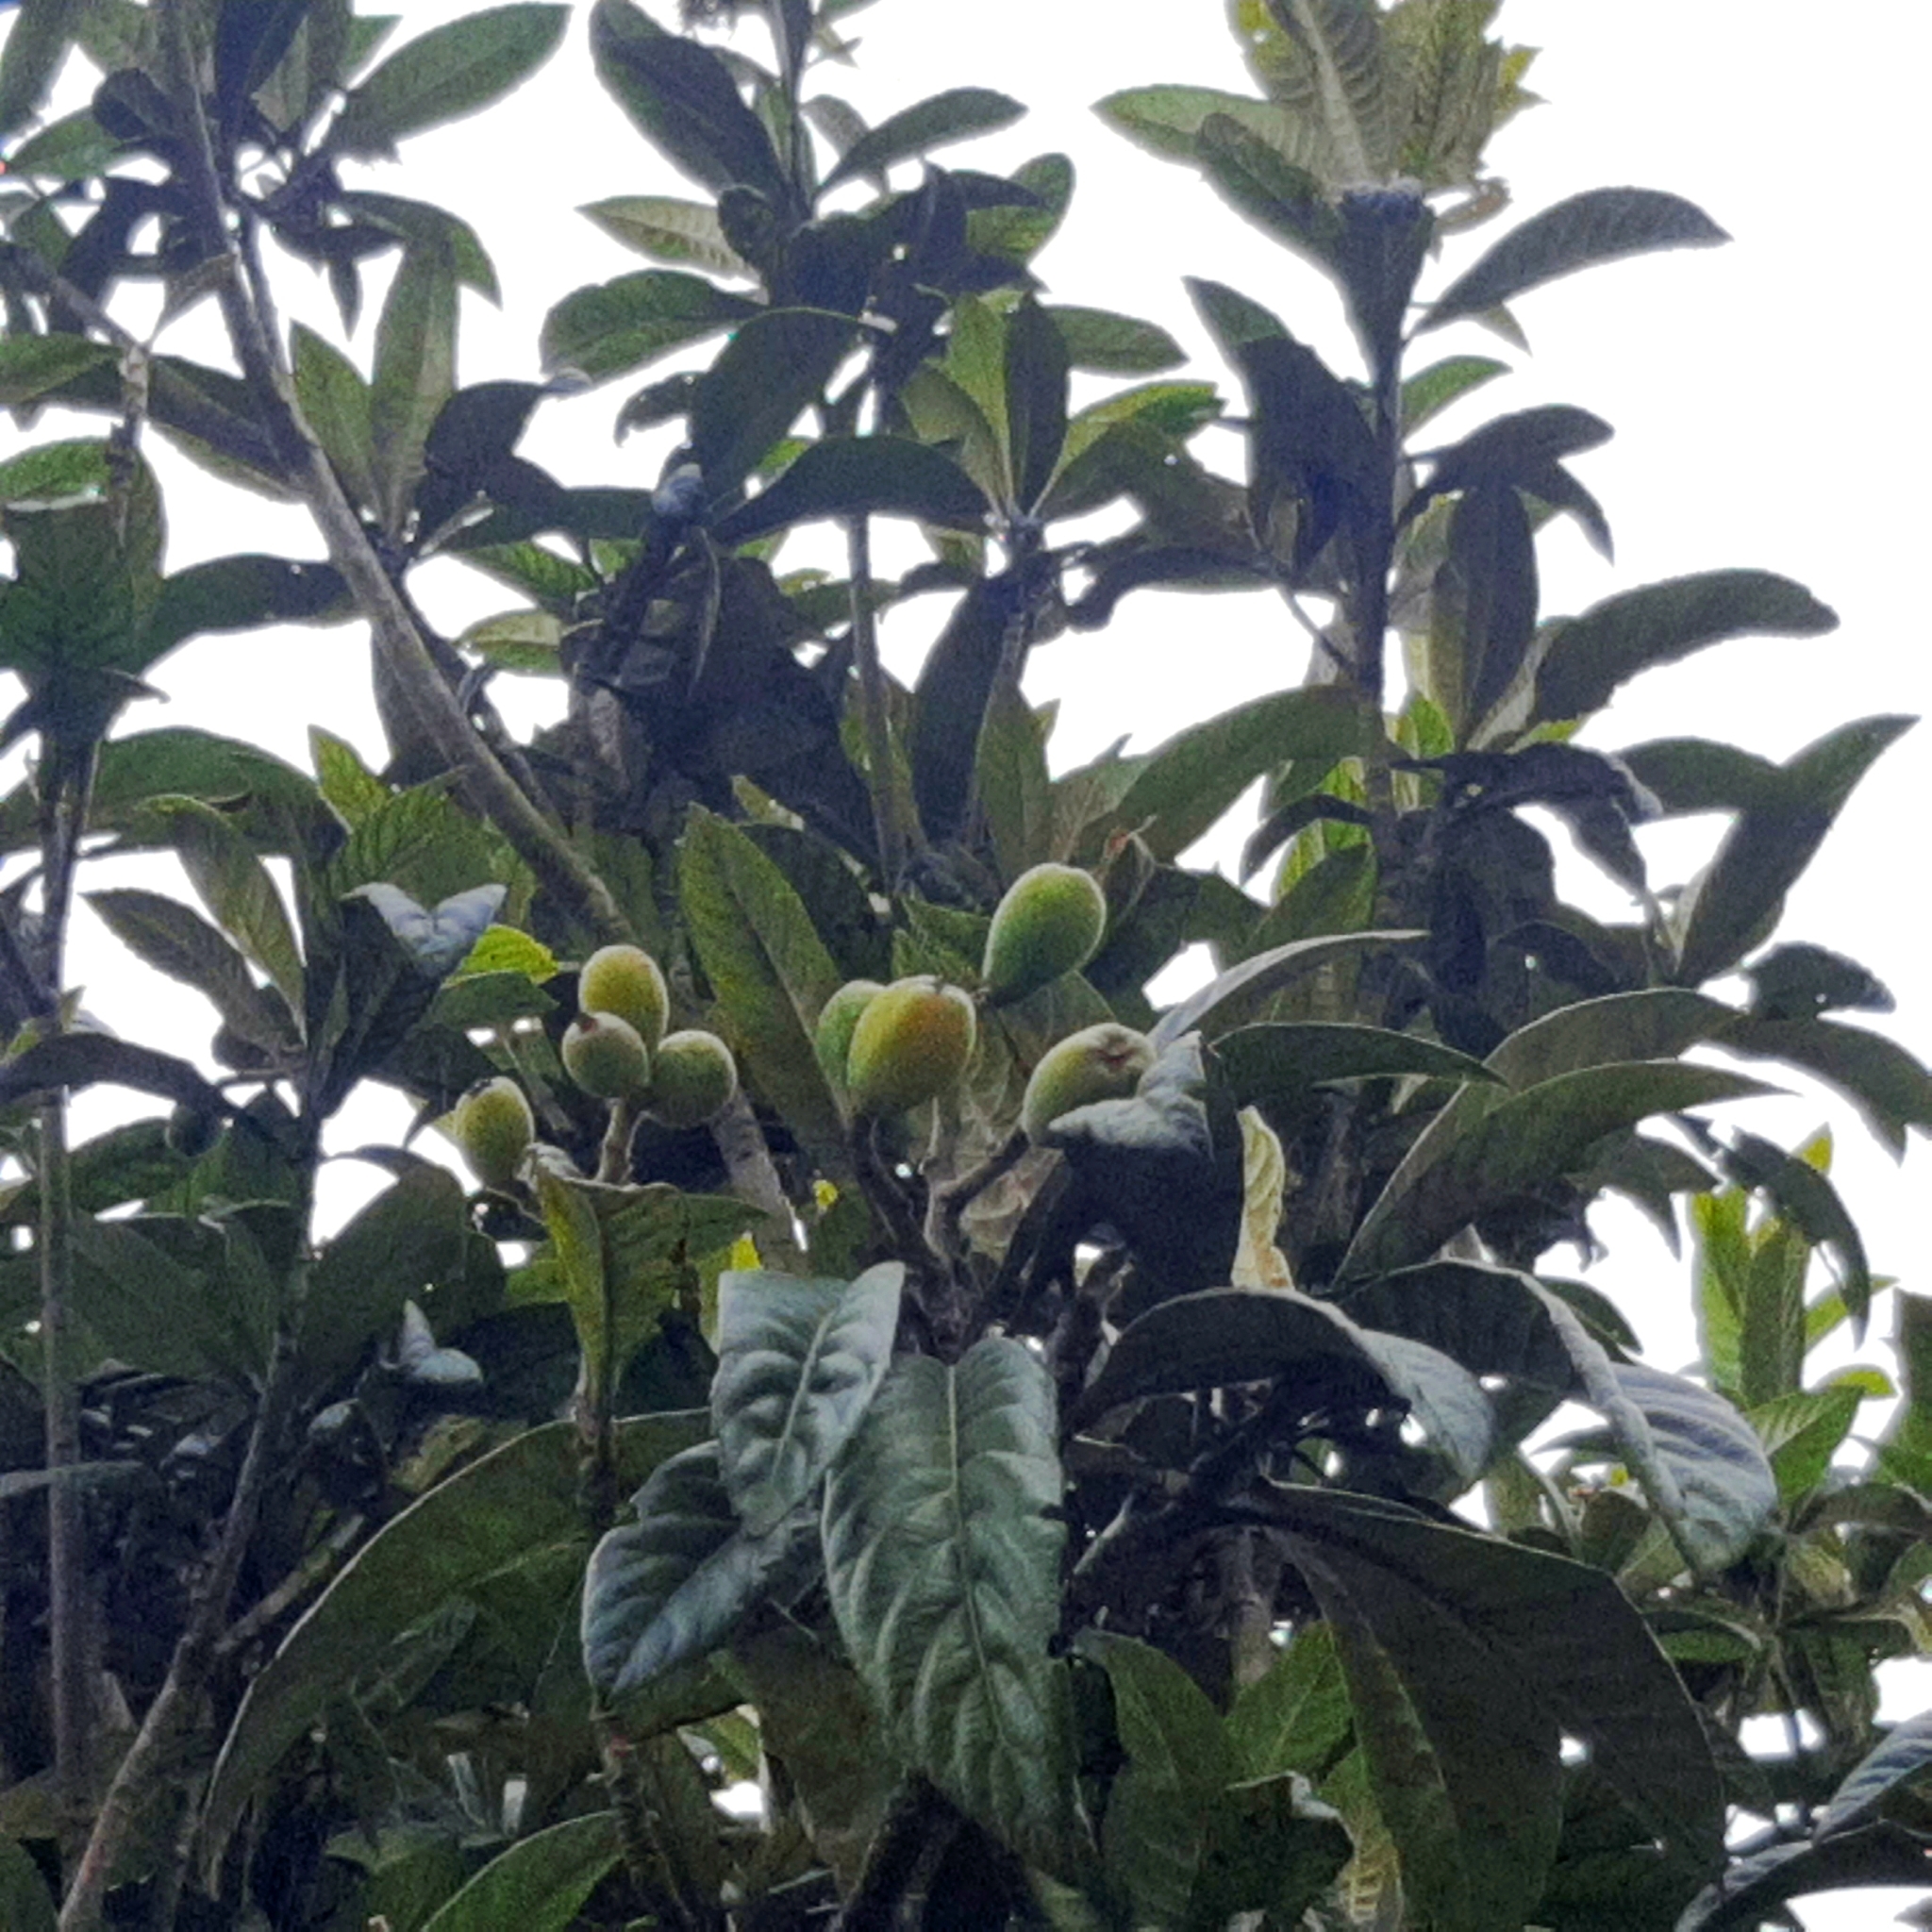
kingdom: Plantae
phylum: Tracheophyta
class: Magnoliopsida
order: Rosales
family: Rosaceae
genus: Rhaphiolepis
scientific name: Rhaphiolepis bibas
